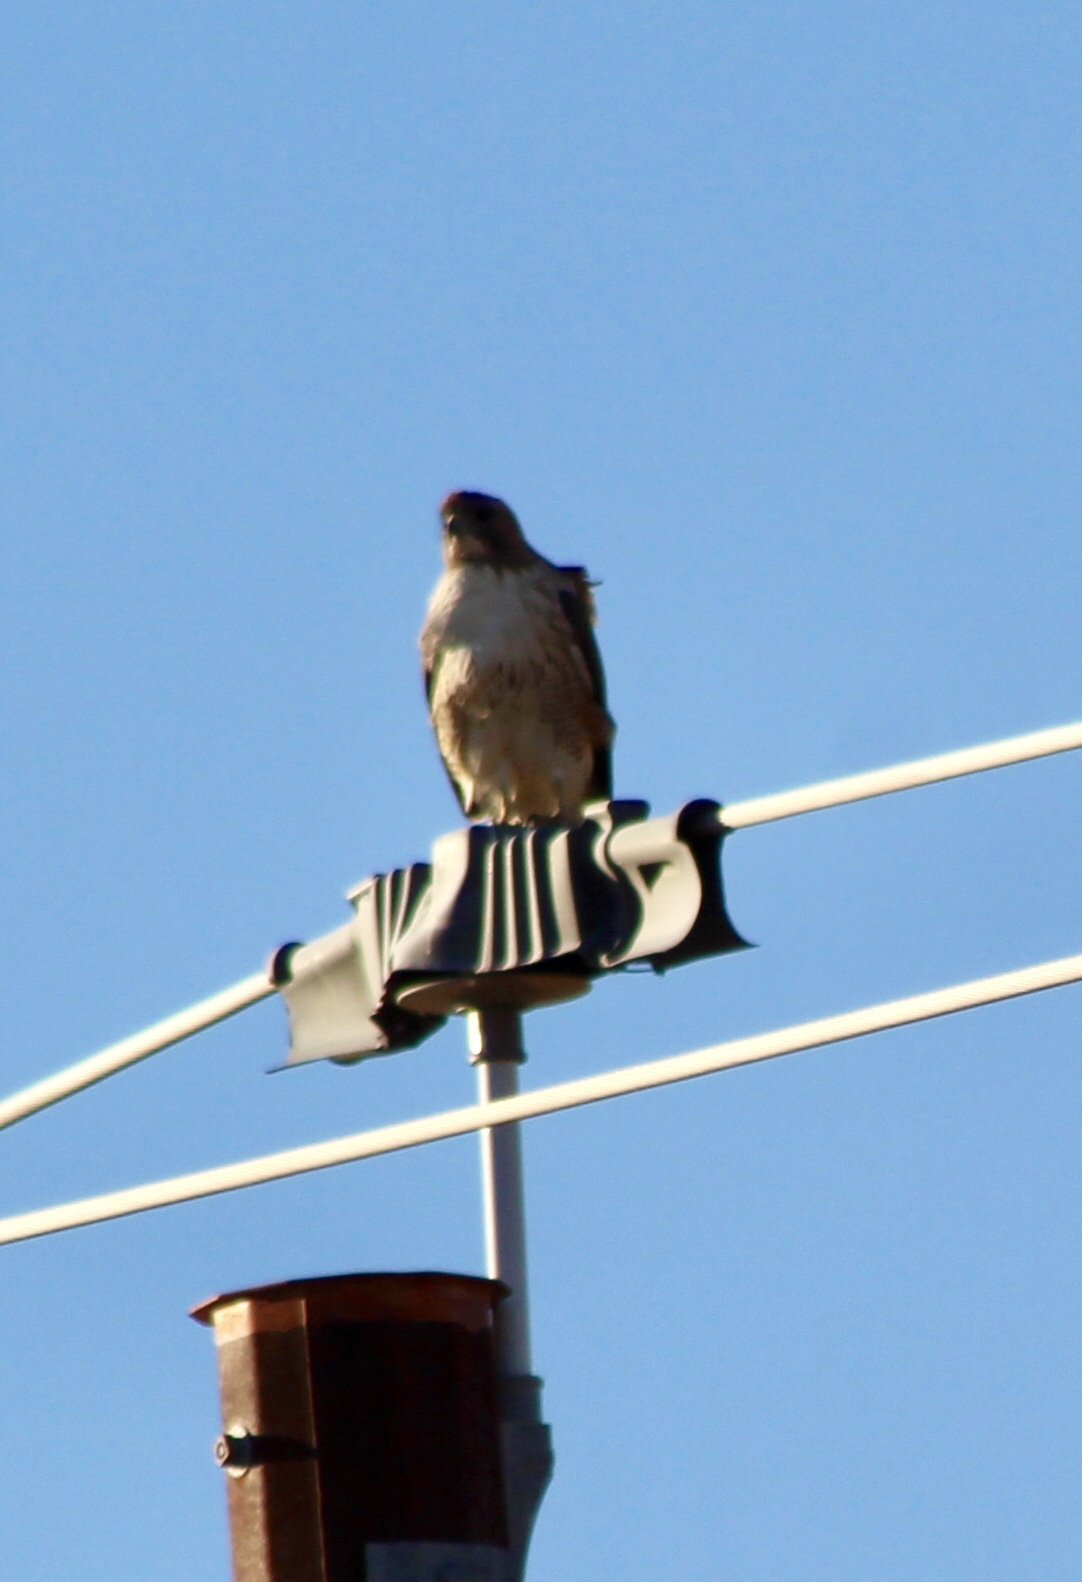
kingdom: Animalia
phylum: Chordata
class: Aves
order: Accipitriformes
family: Accipitridae
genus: Buteo
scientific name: Buteo jamaicensis
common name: Red-tailed hawk
